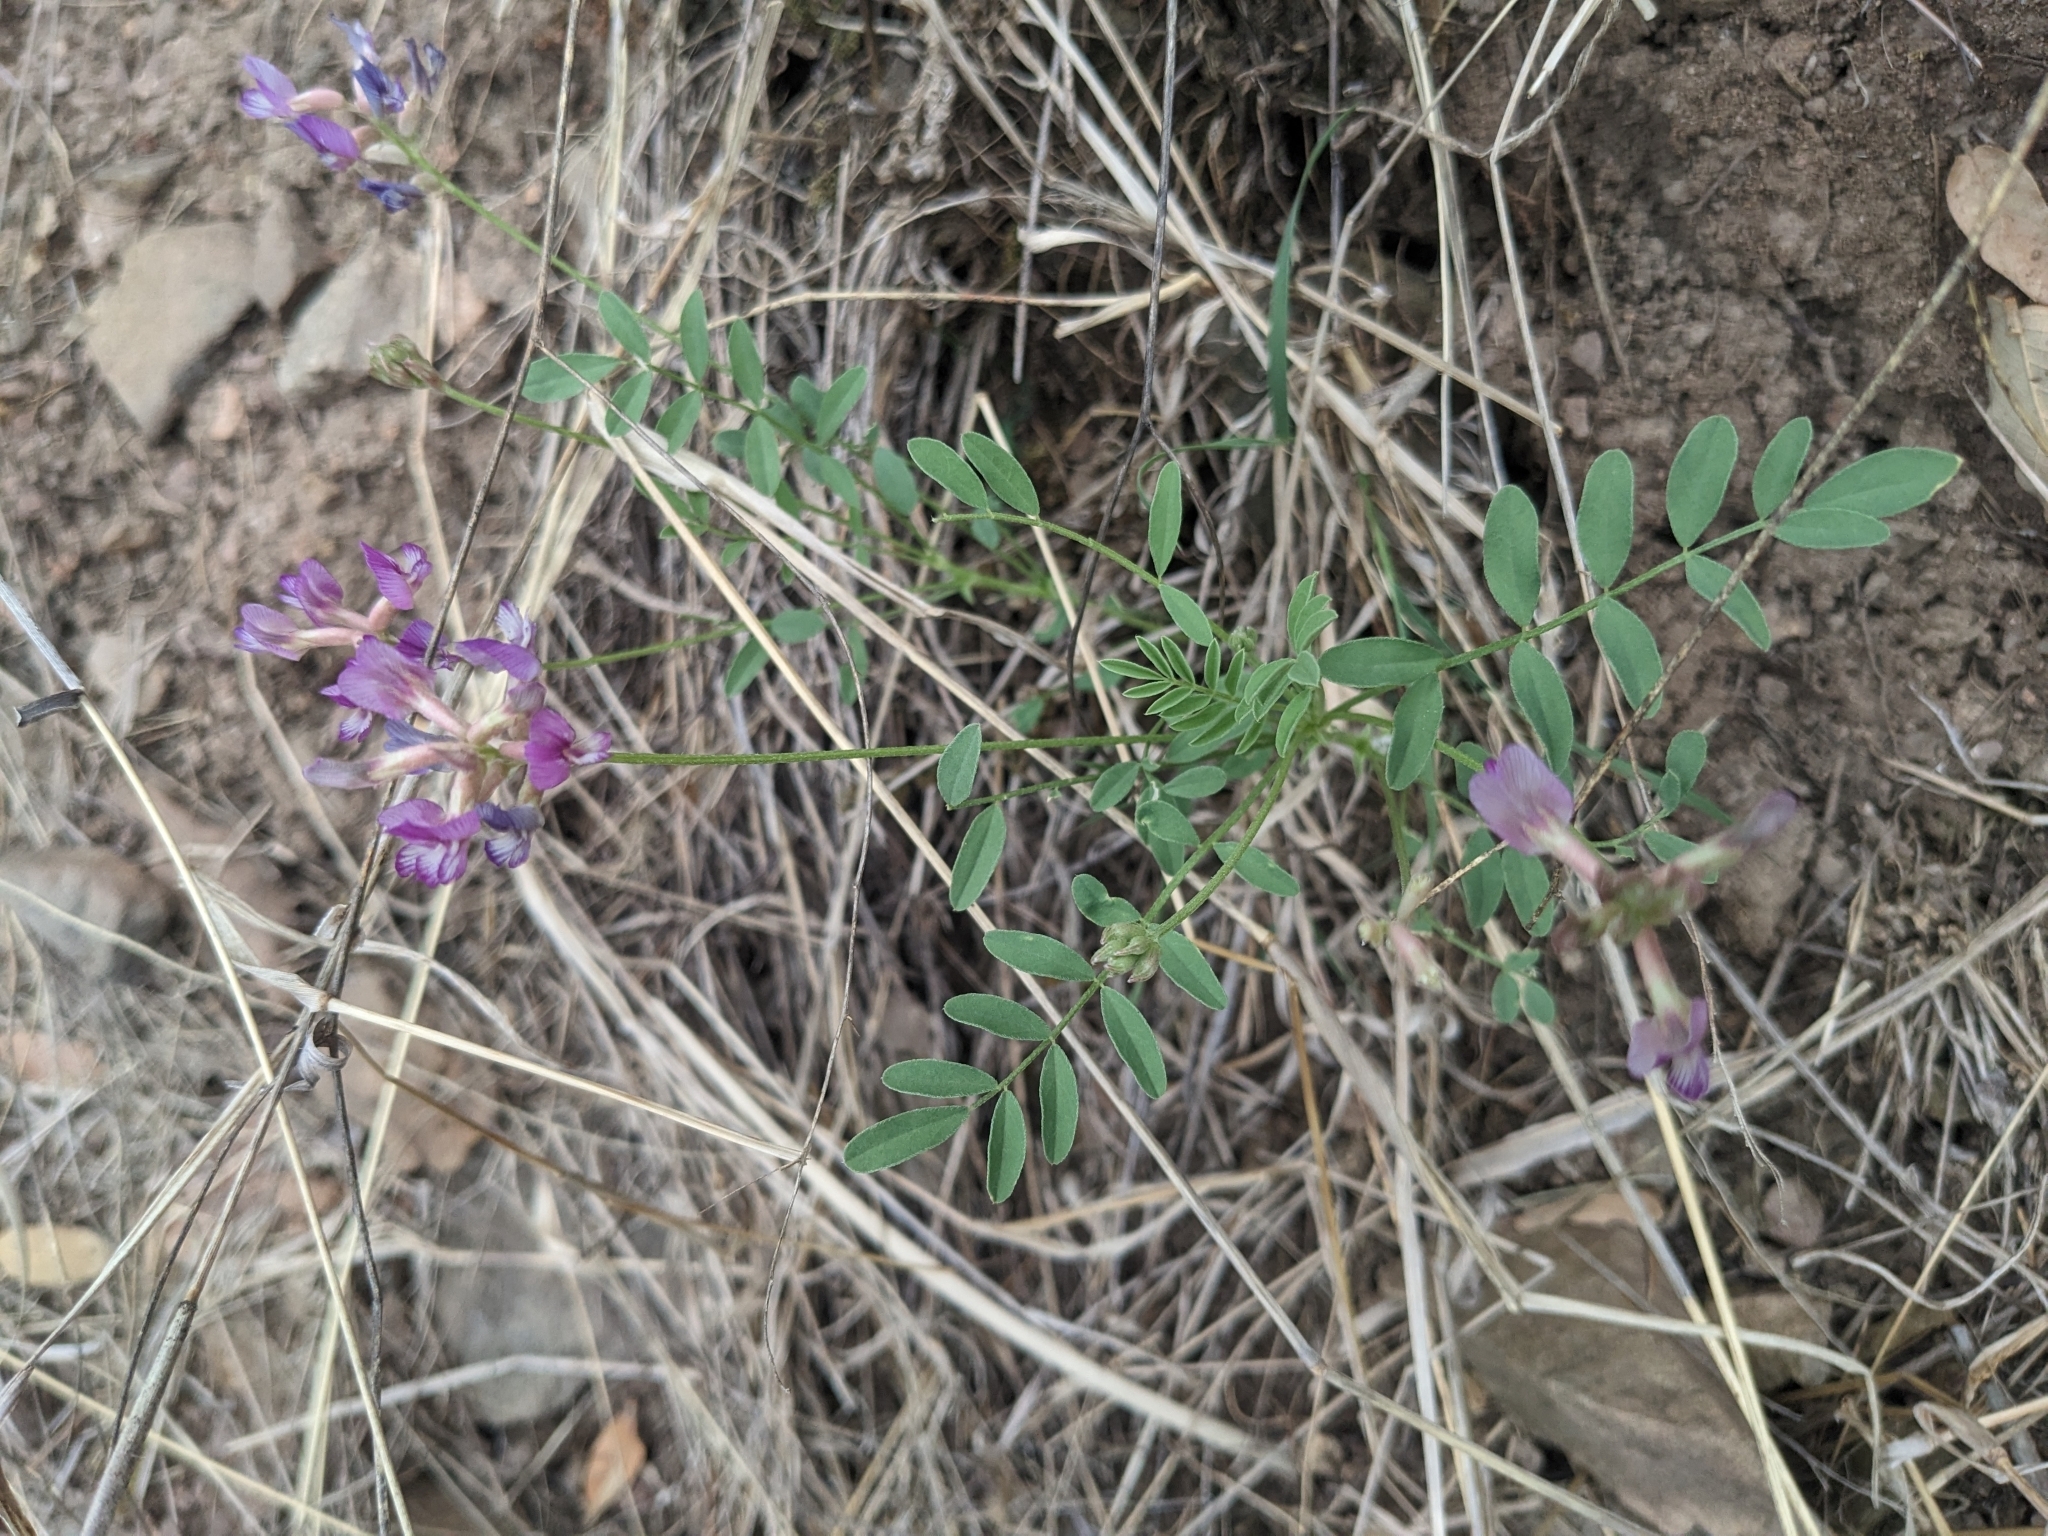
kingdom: Plantae
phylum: Tracheophyta
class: Magnoliopsida
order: Fabales
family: Fabaceae
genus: Astragalus
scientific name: Astragalus nothoxys
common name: Beaked milk-vetch
